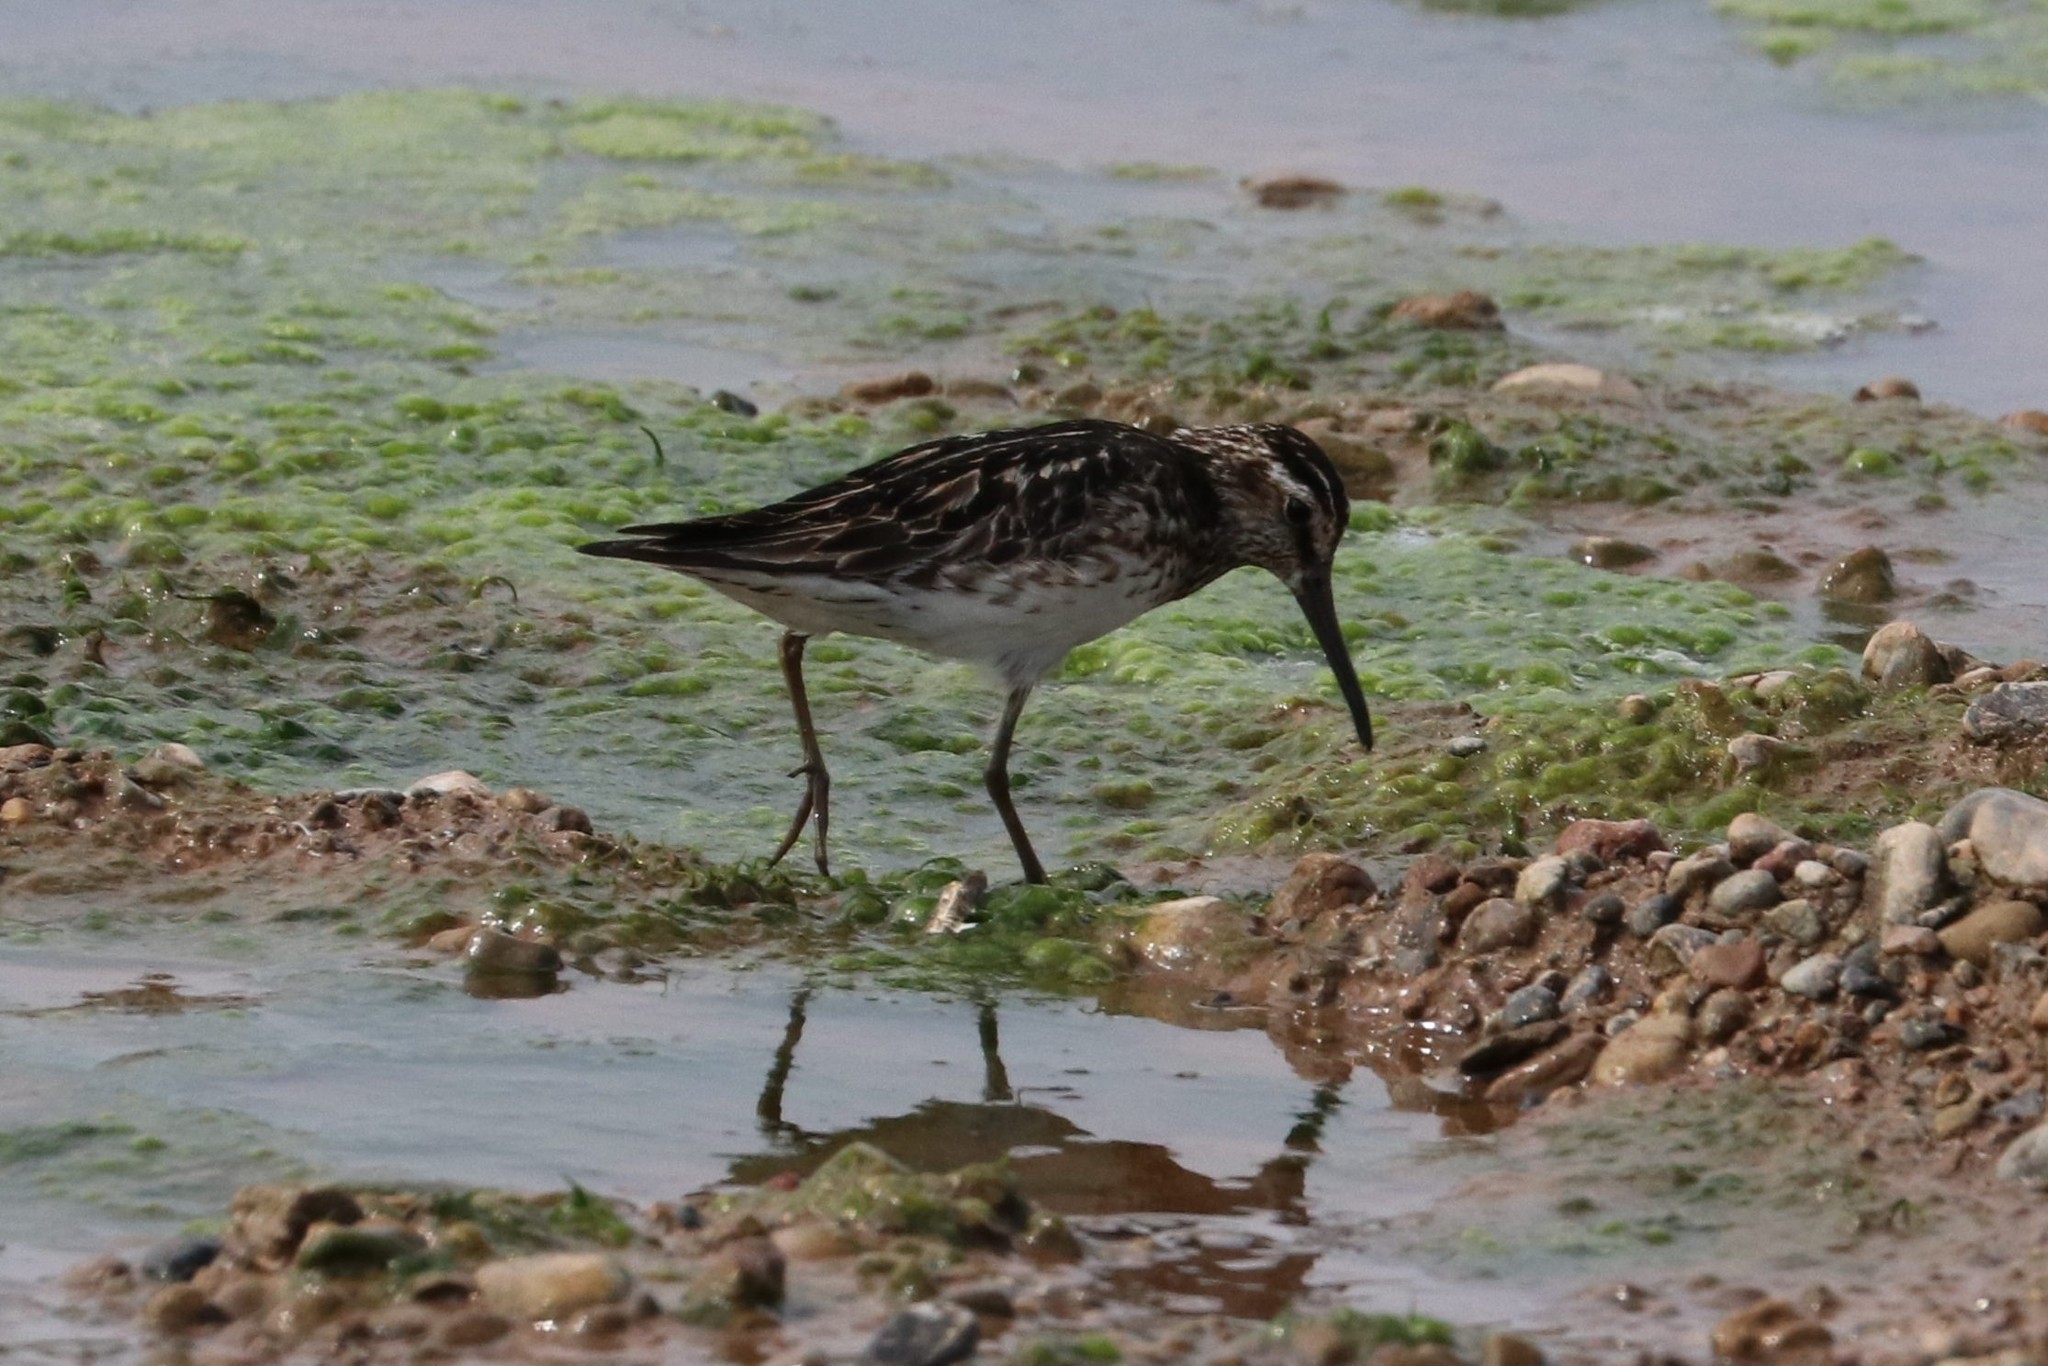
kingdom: Animalia
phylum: Chordata
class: Aves
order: Charadriiformes
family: Scolopacidae
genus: Calidris
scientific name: Calidris falcinellus
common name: Broad-billed sandpiper
